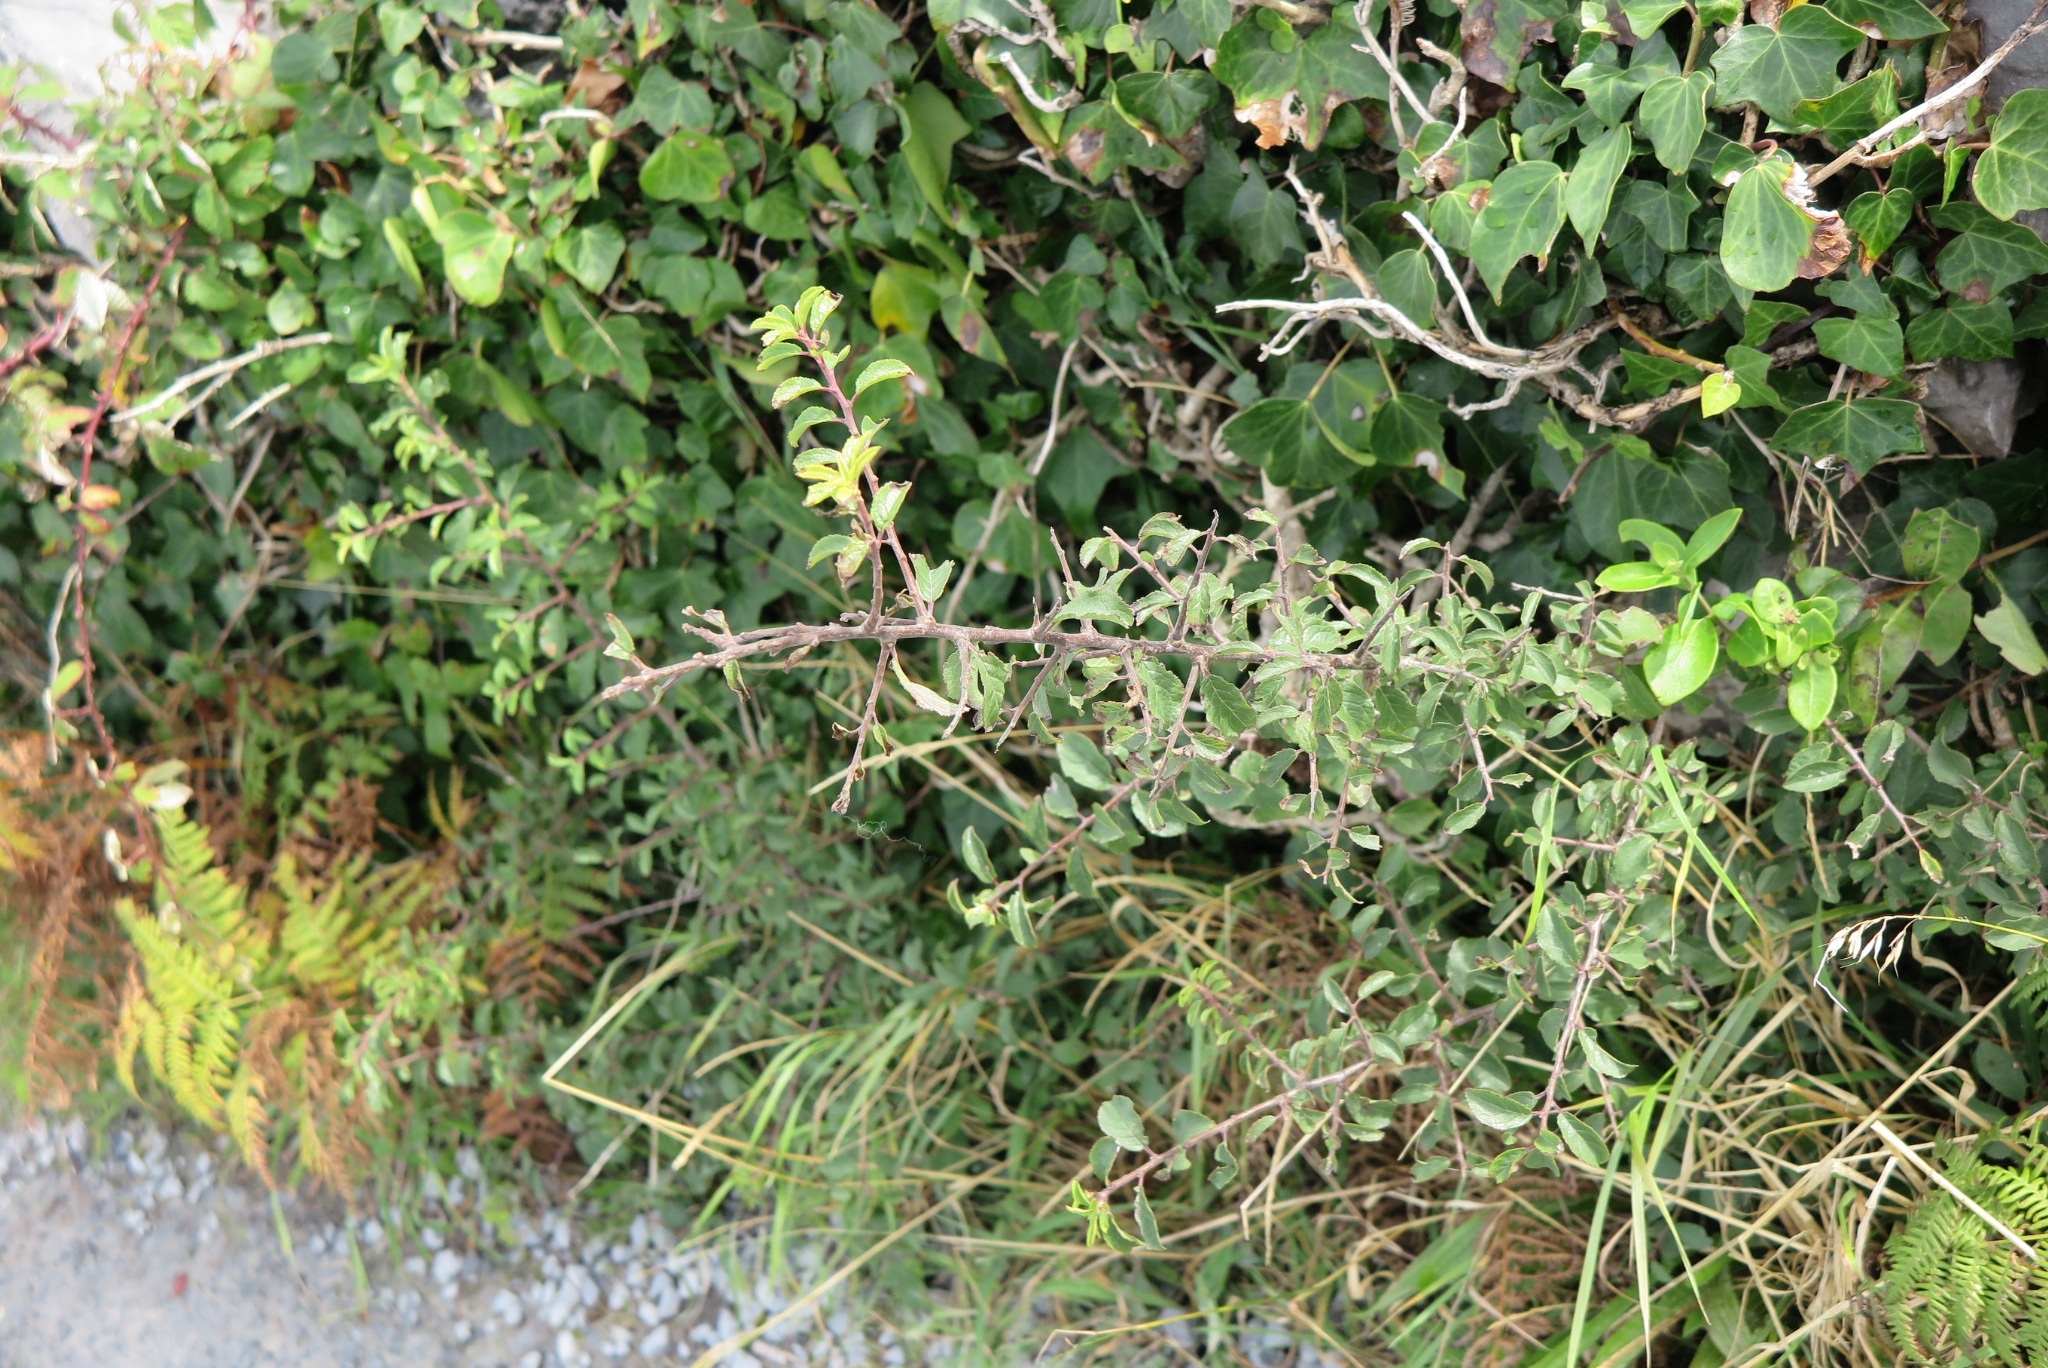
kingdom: Plantae
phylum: Tracheophyta
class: Magnoliopsida
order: Rosales
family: Rosaceae
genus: Prunus
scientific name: Prunus spinosa
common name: Blackthorn
